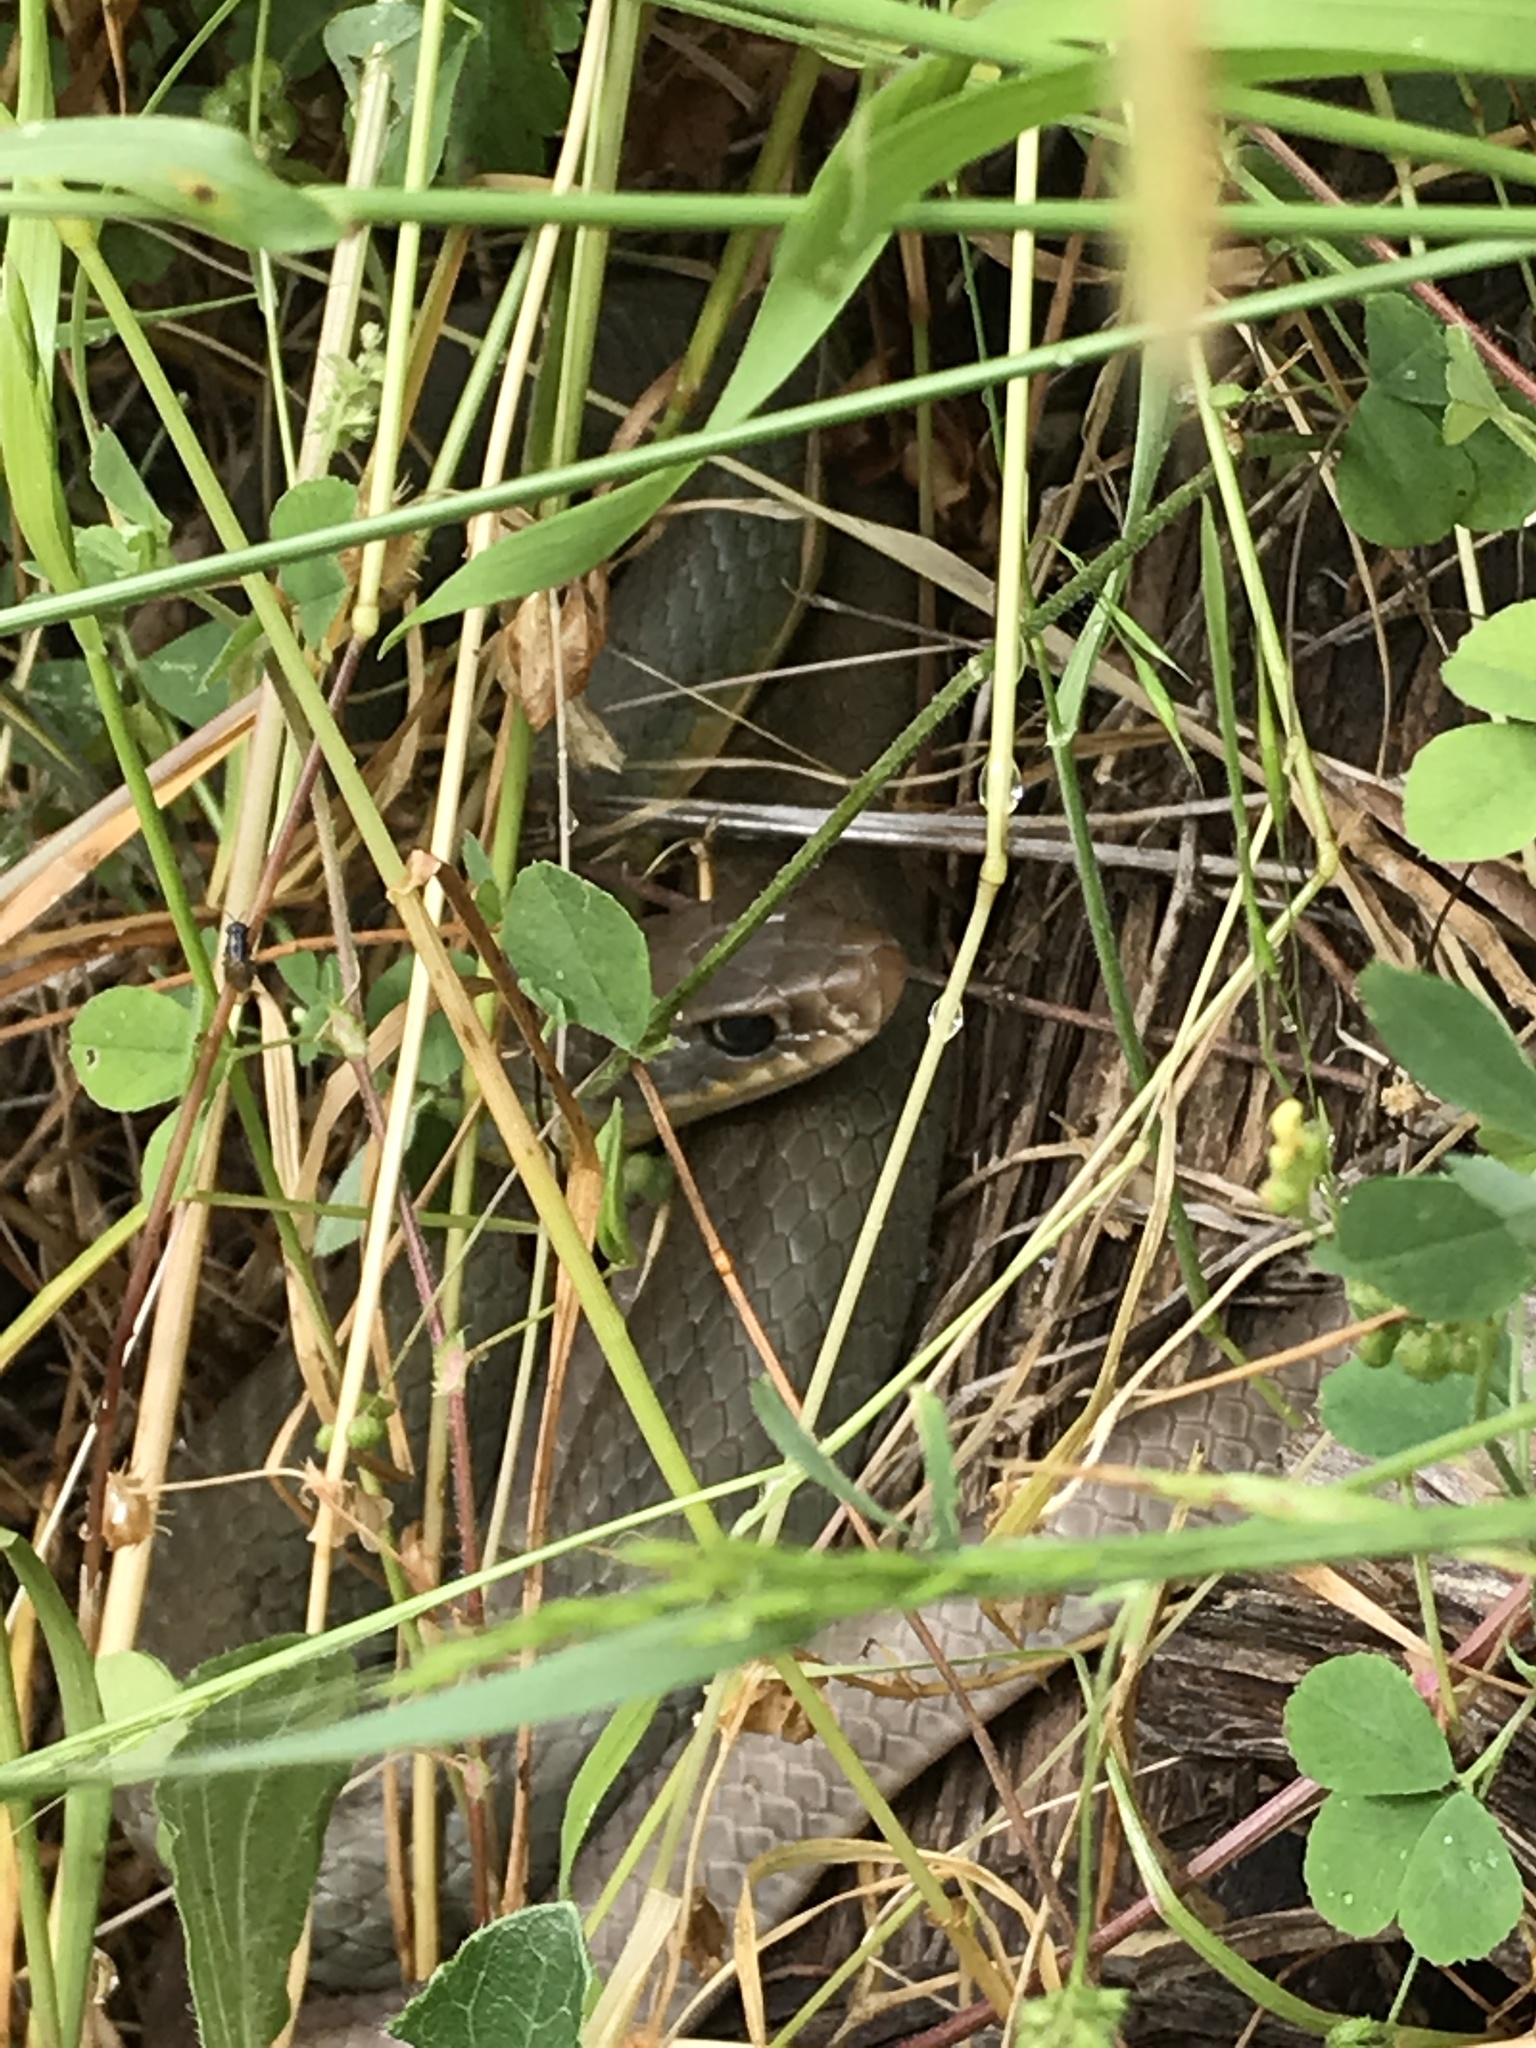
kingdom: Animalia
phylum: Chordata
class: Squamata
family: Colubridae
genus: Coluber
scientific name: Coluber constrictor
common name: Eastern racer
